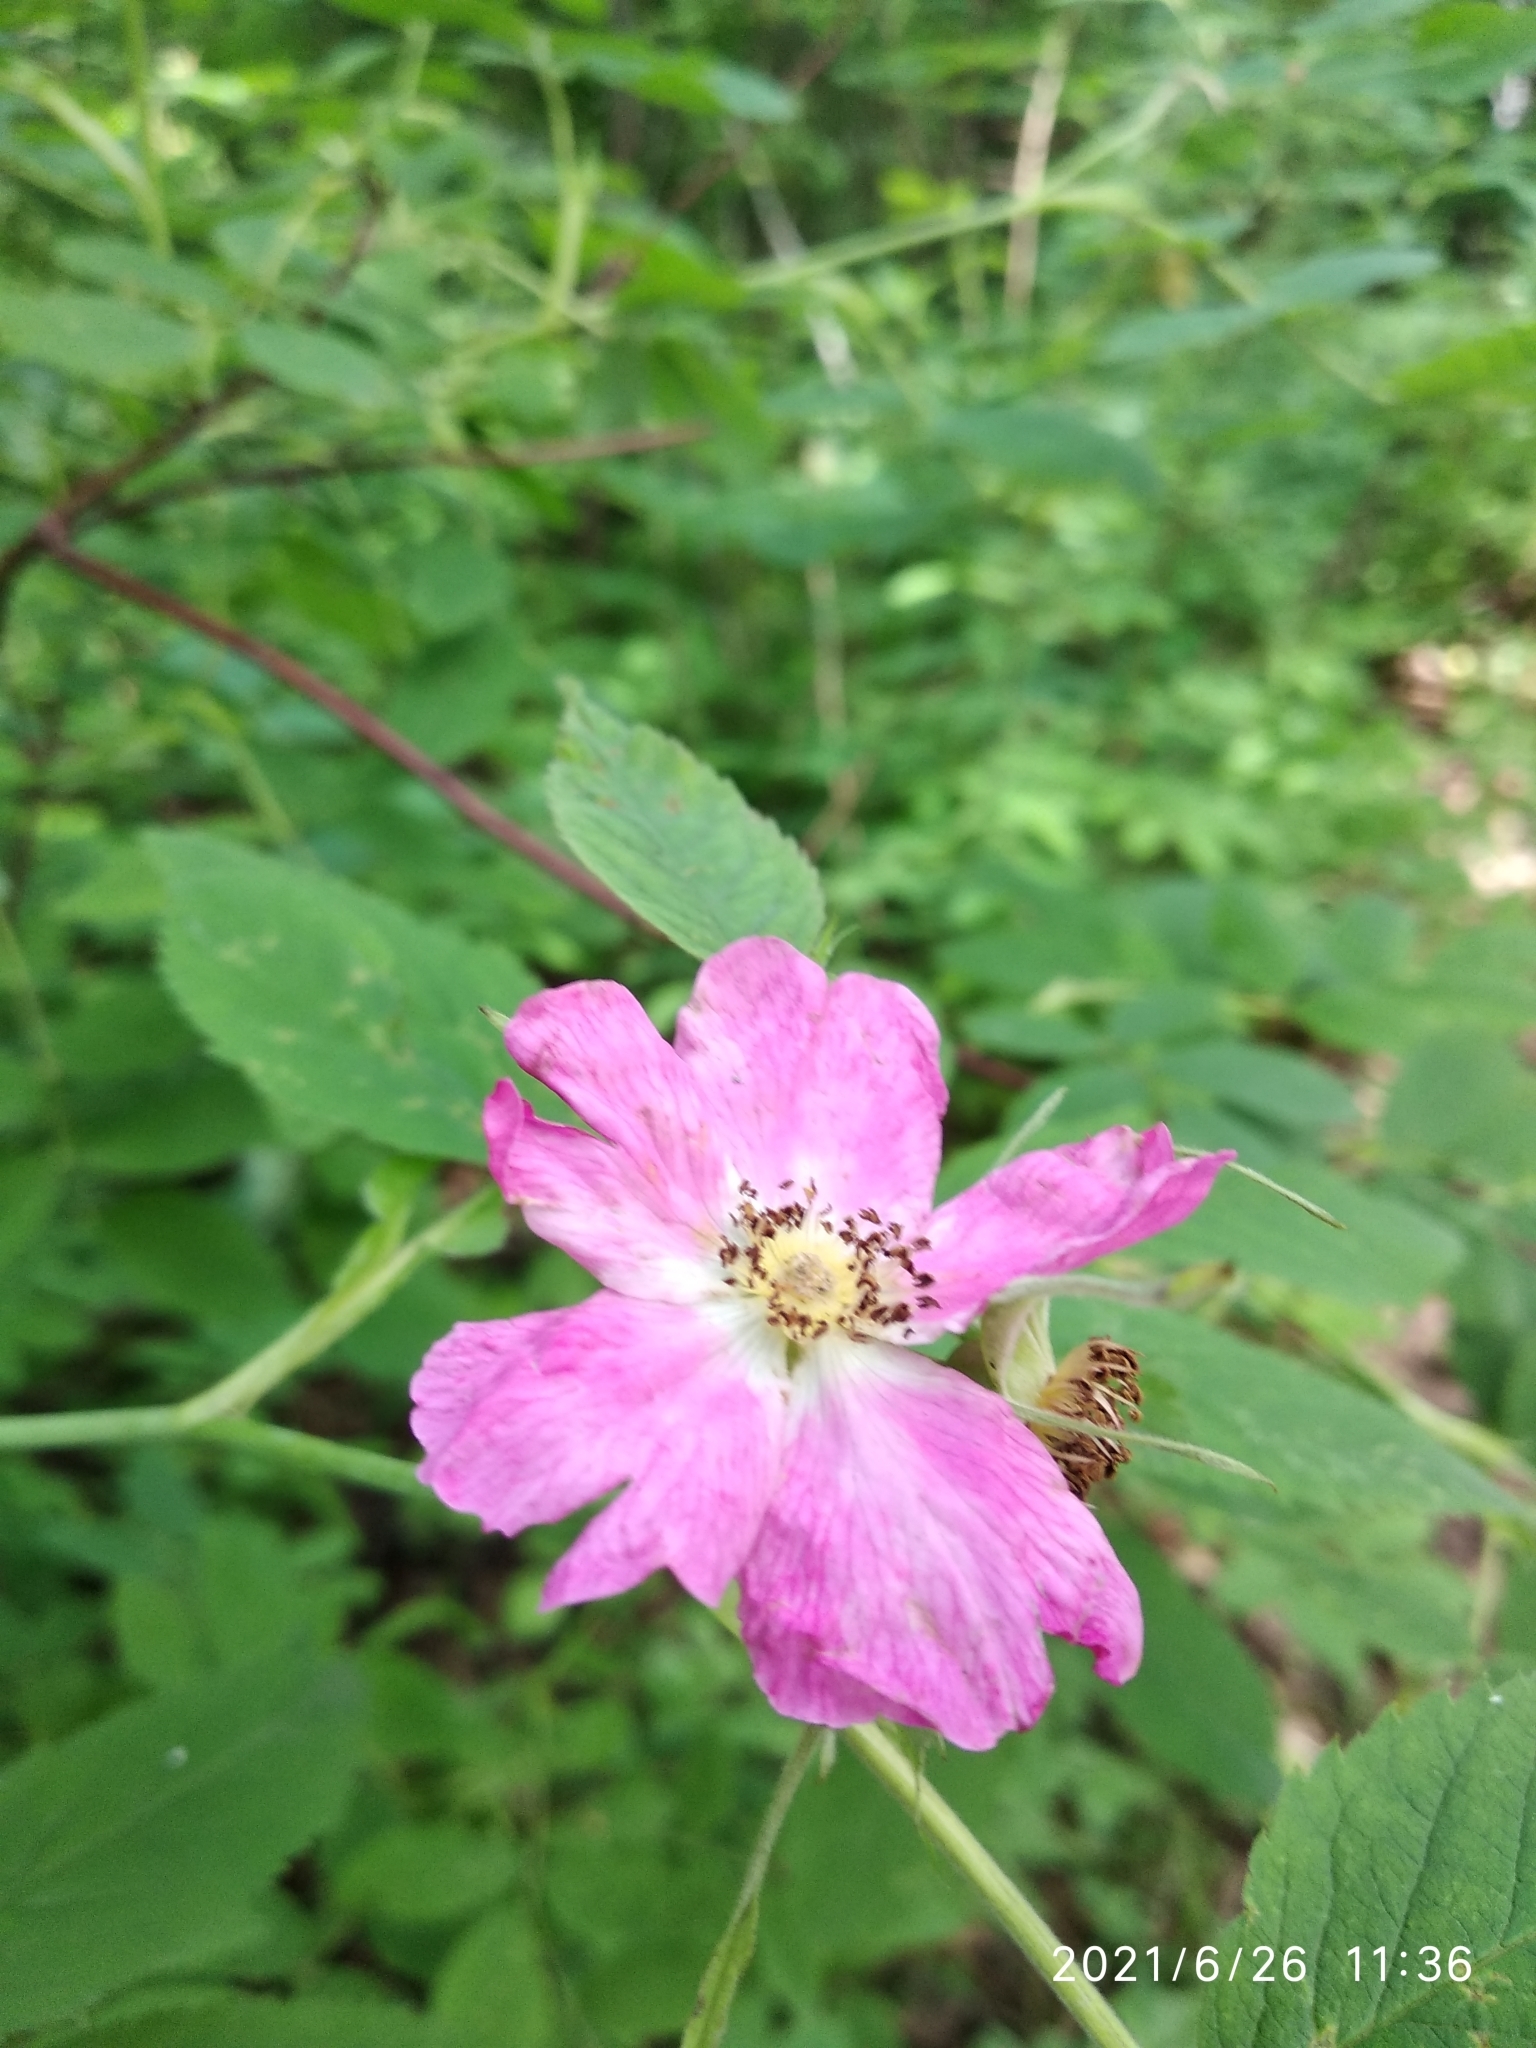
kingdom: Plantae
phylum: Tracheophyta
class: Magnoliopsida
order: Rosales
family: Rosaceae
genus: Rosa
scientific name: Rosa majalis
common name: Cinnamon rose
